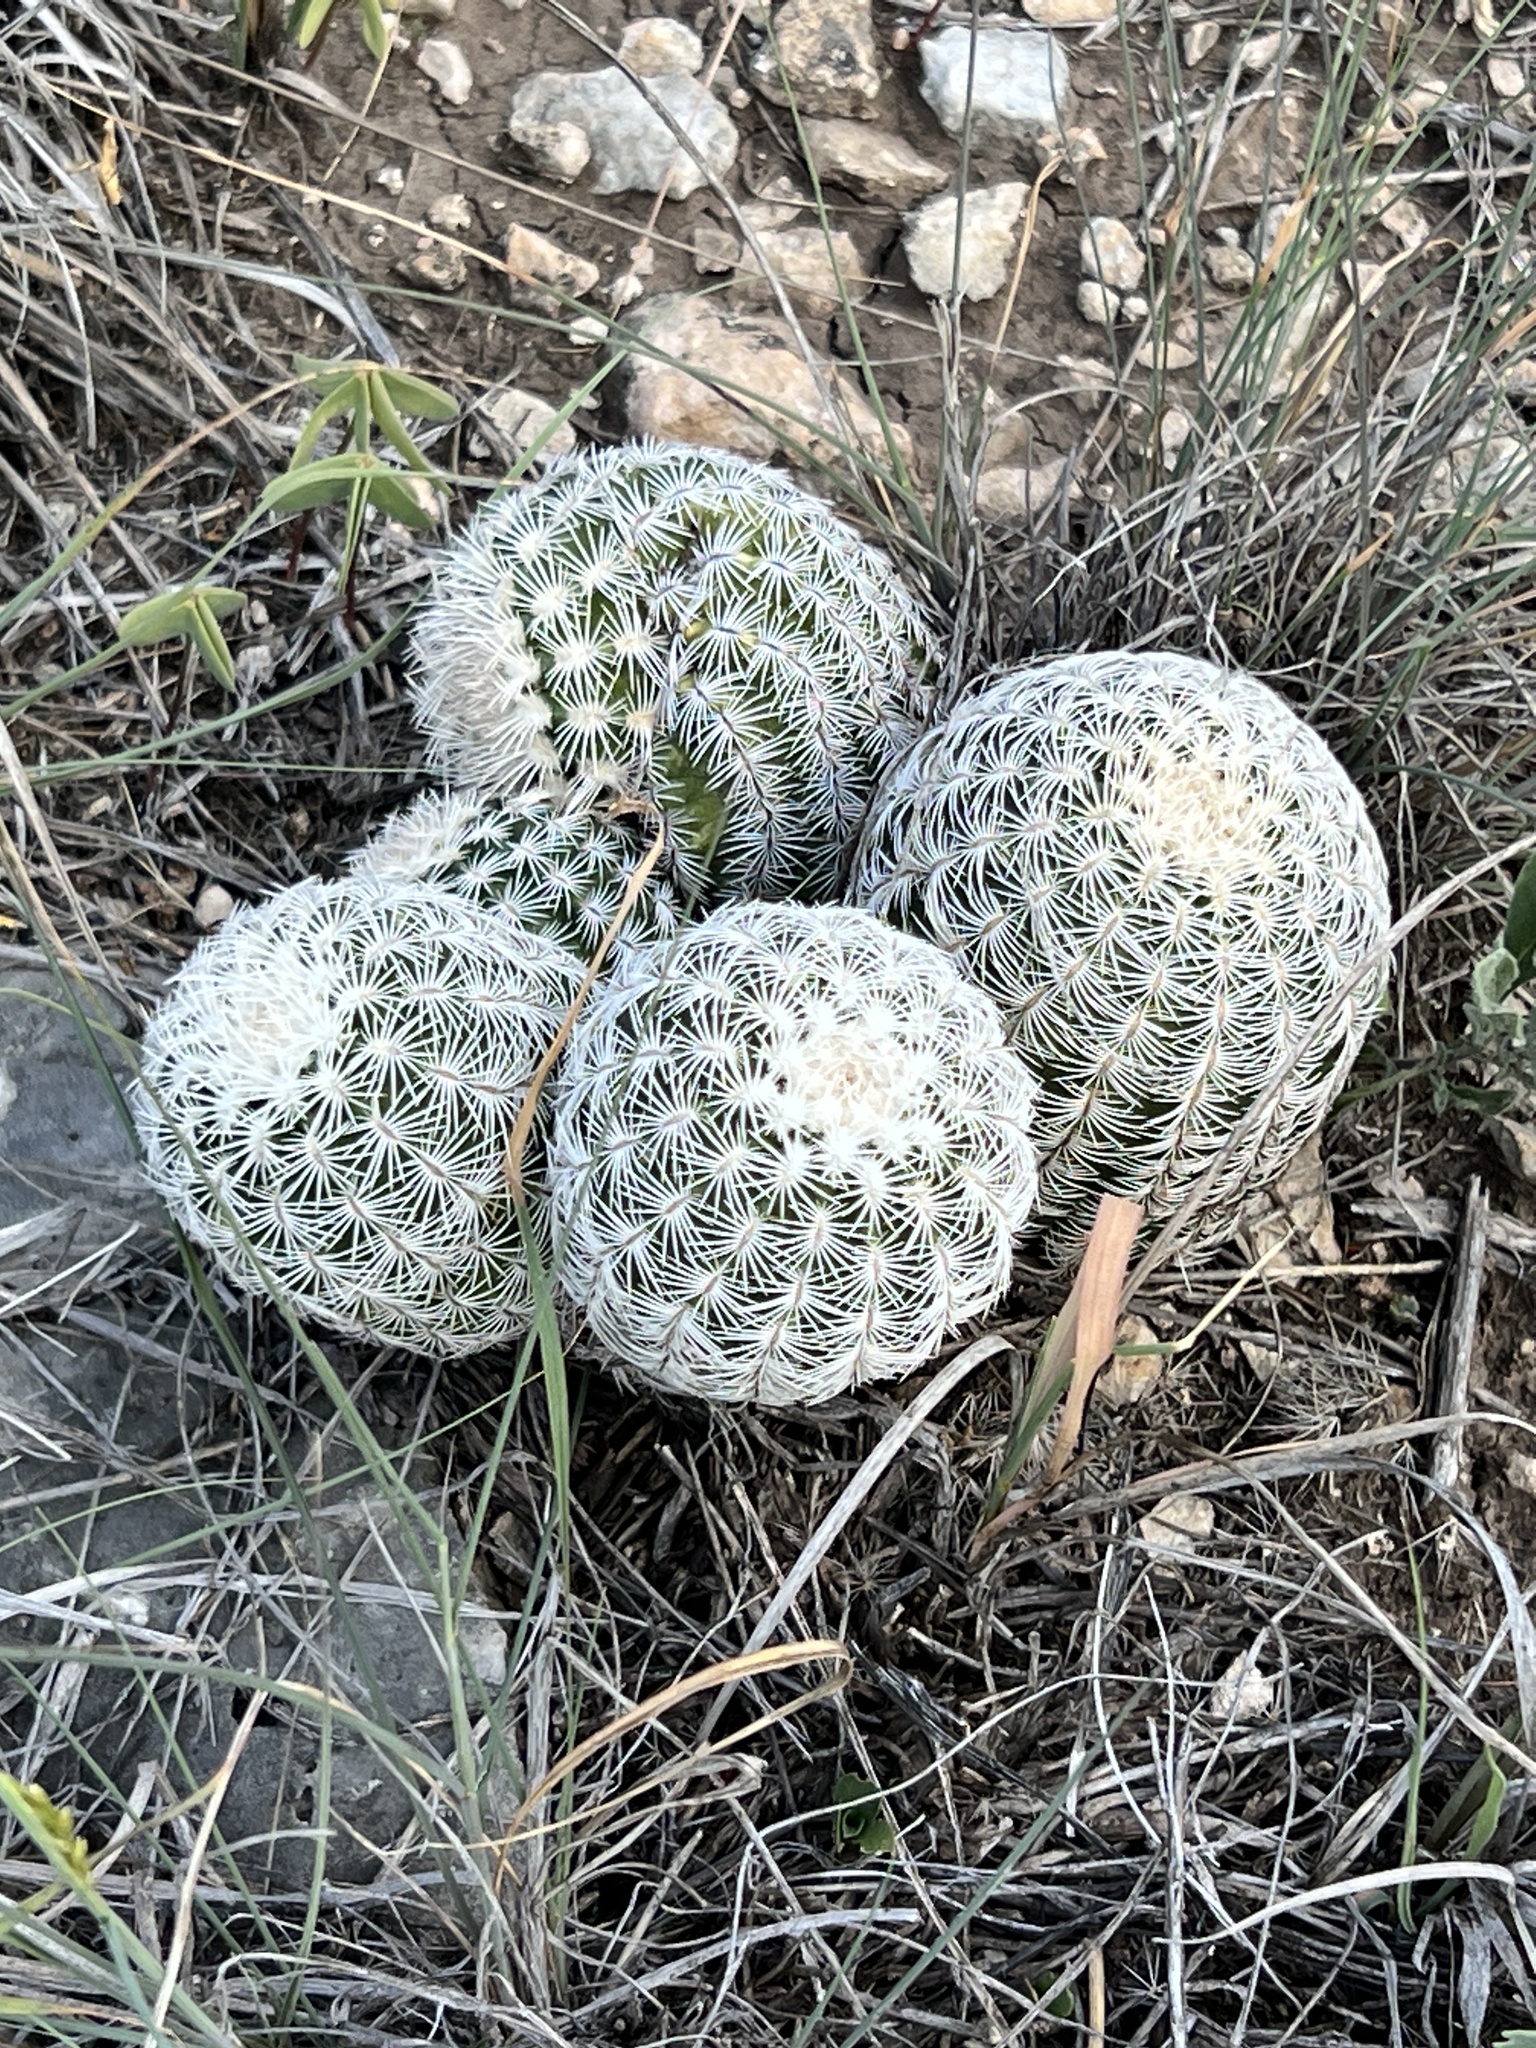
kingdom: Plantae
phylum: Tracheophyta
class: Magnoliopsida
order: Caryophyllales
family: Cactaceae
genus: Echinocereus
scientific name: Echinocereus reichenbachii
